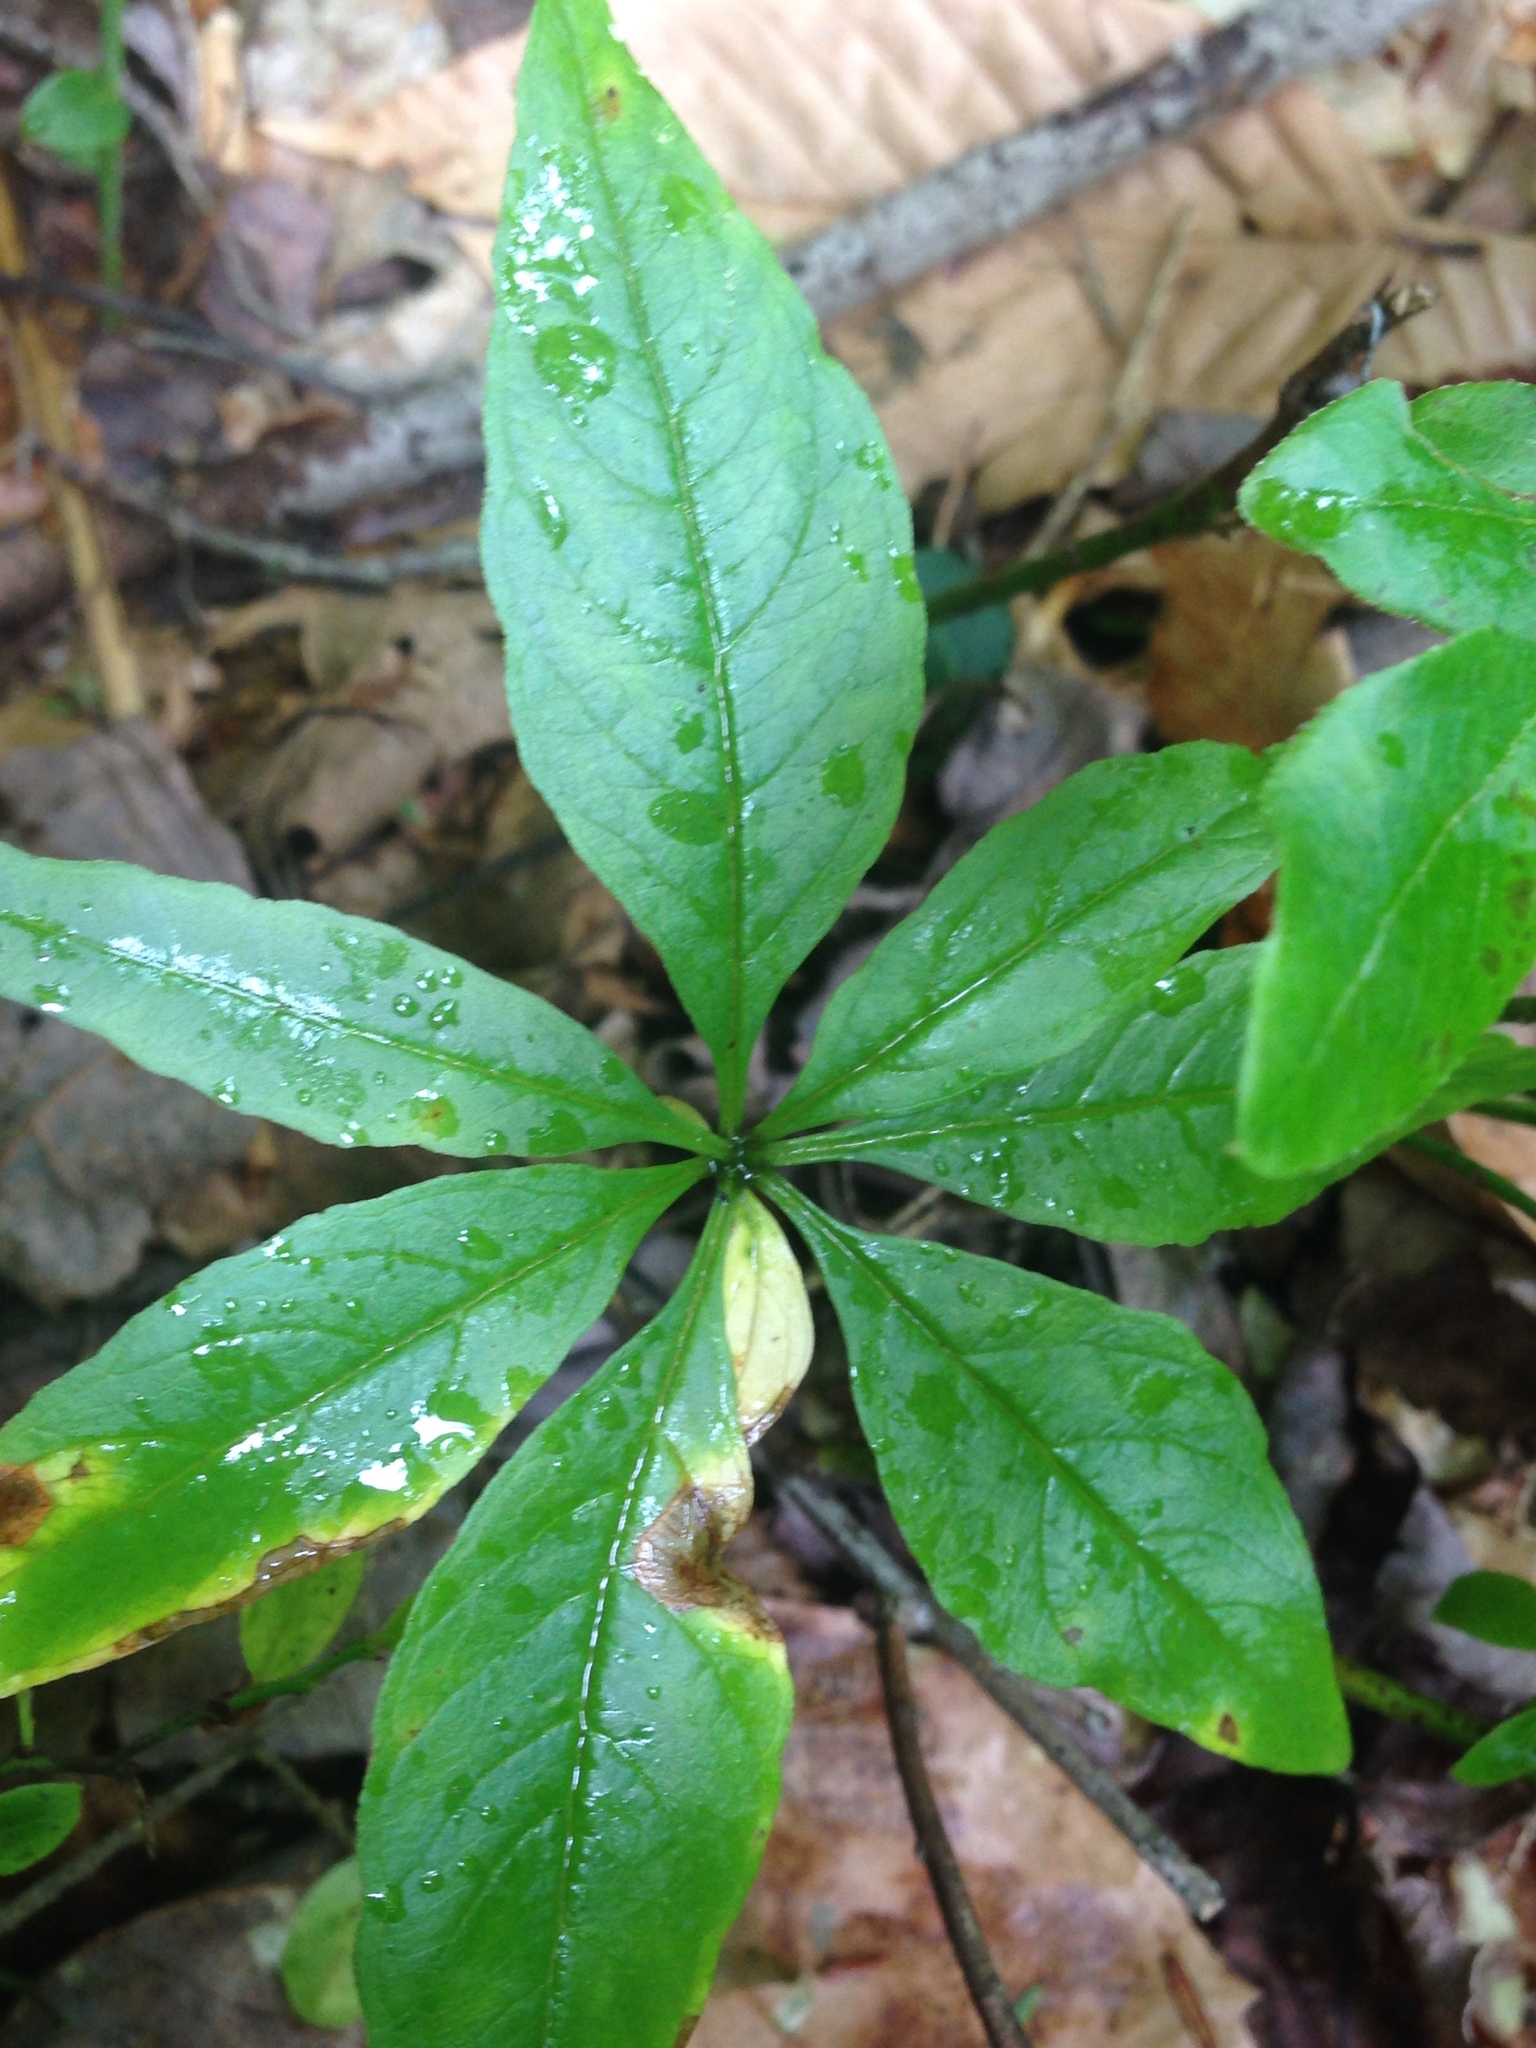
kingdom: Plantae
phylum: Tracheophyta
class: Magnoliopsida
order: Ericales
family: Primulaceae
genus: Lysimachia
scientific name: Lysimachia borealis
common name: American starflower
